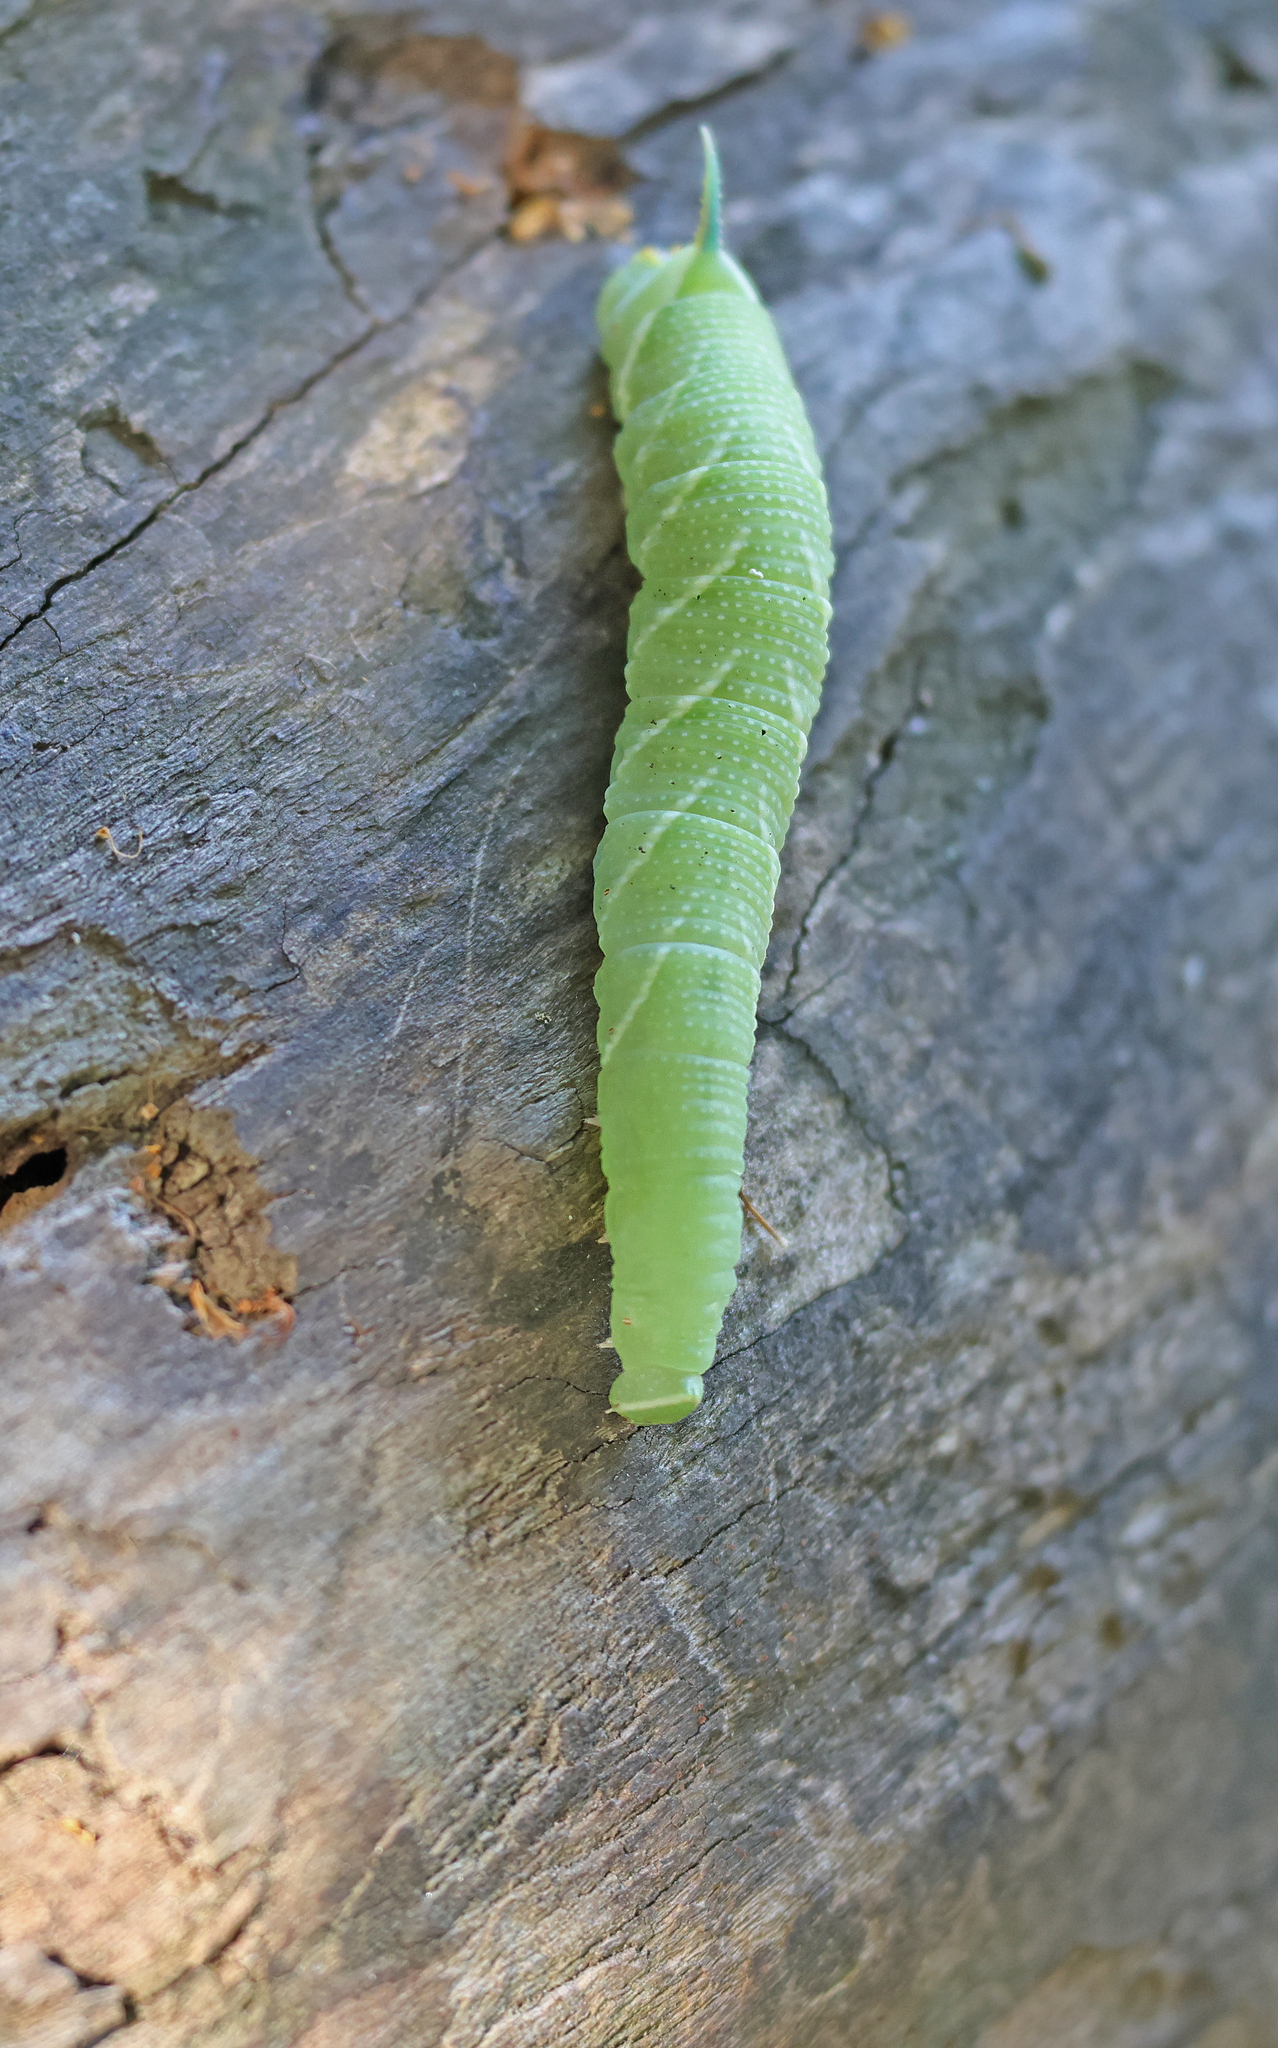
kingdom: Animalia
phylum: Arthropoda
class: Insecta
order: Lepidoptera
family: Sphingidae
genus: Mimas
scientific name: Mimas tiliae
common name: Lime hawk-moth
